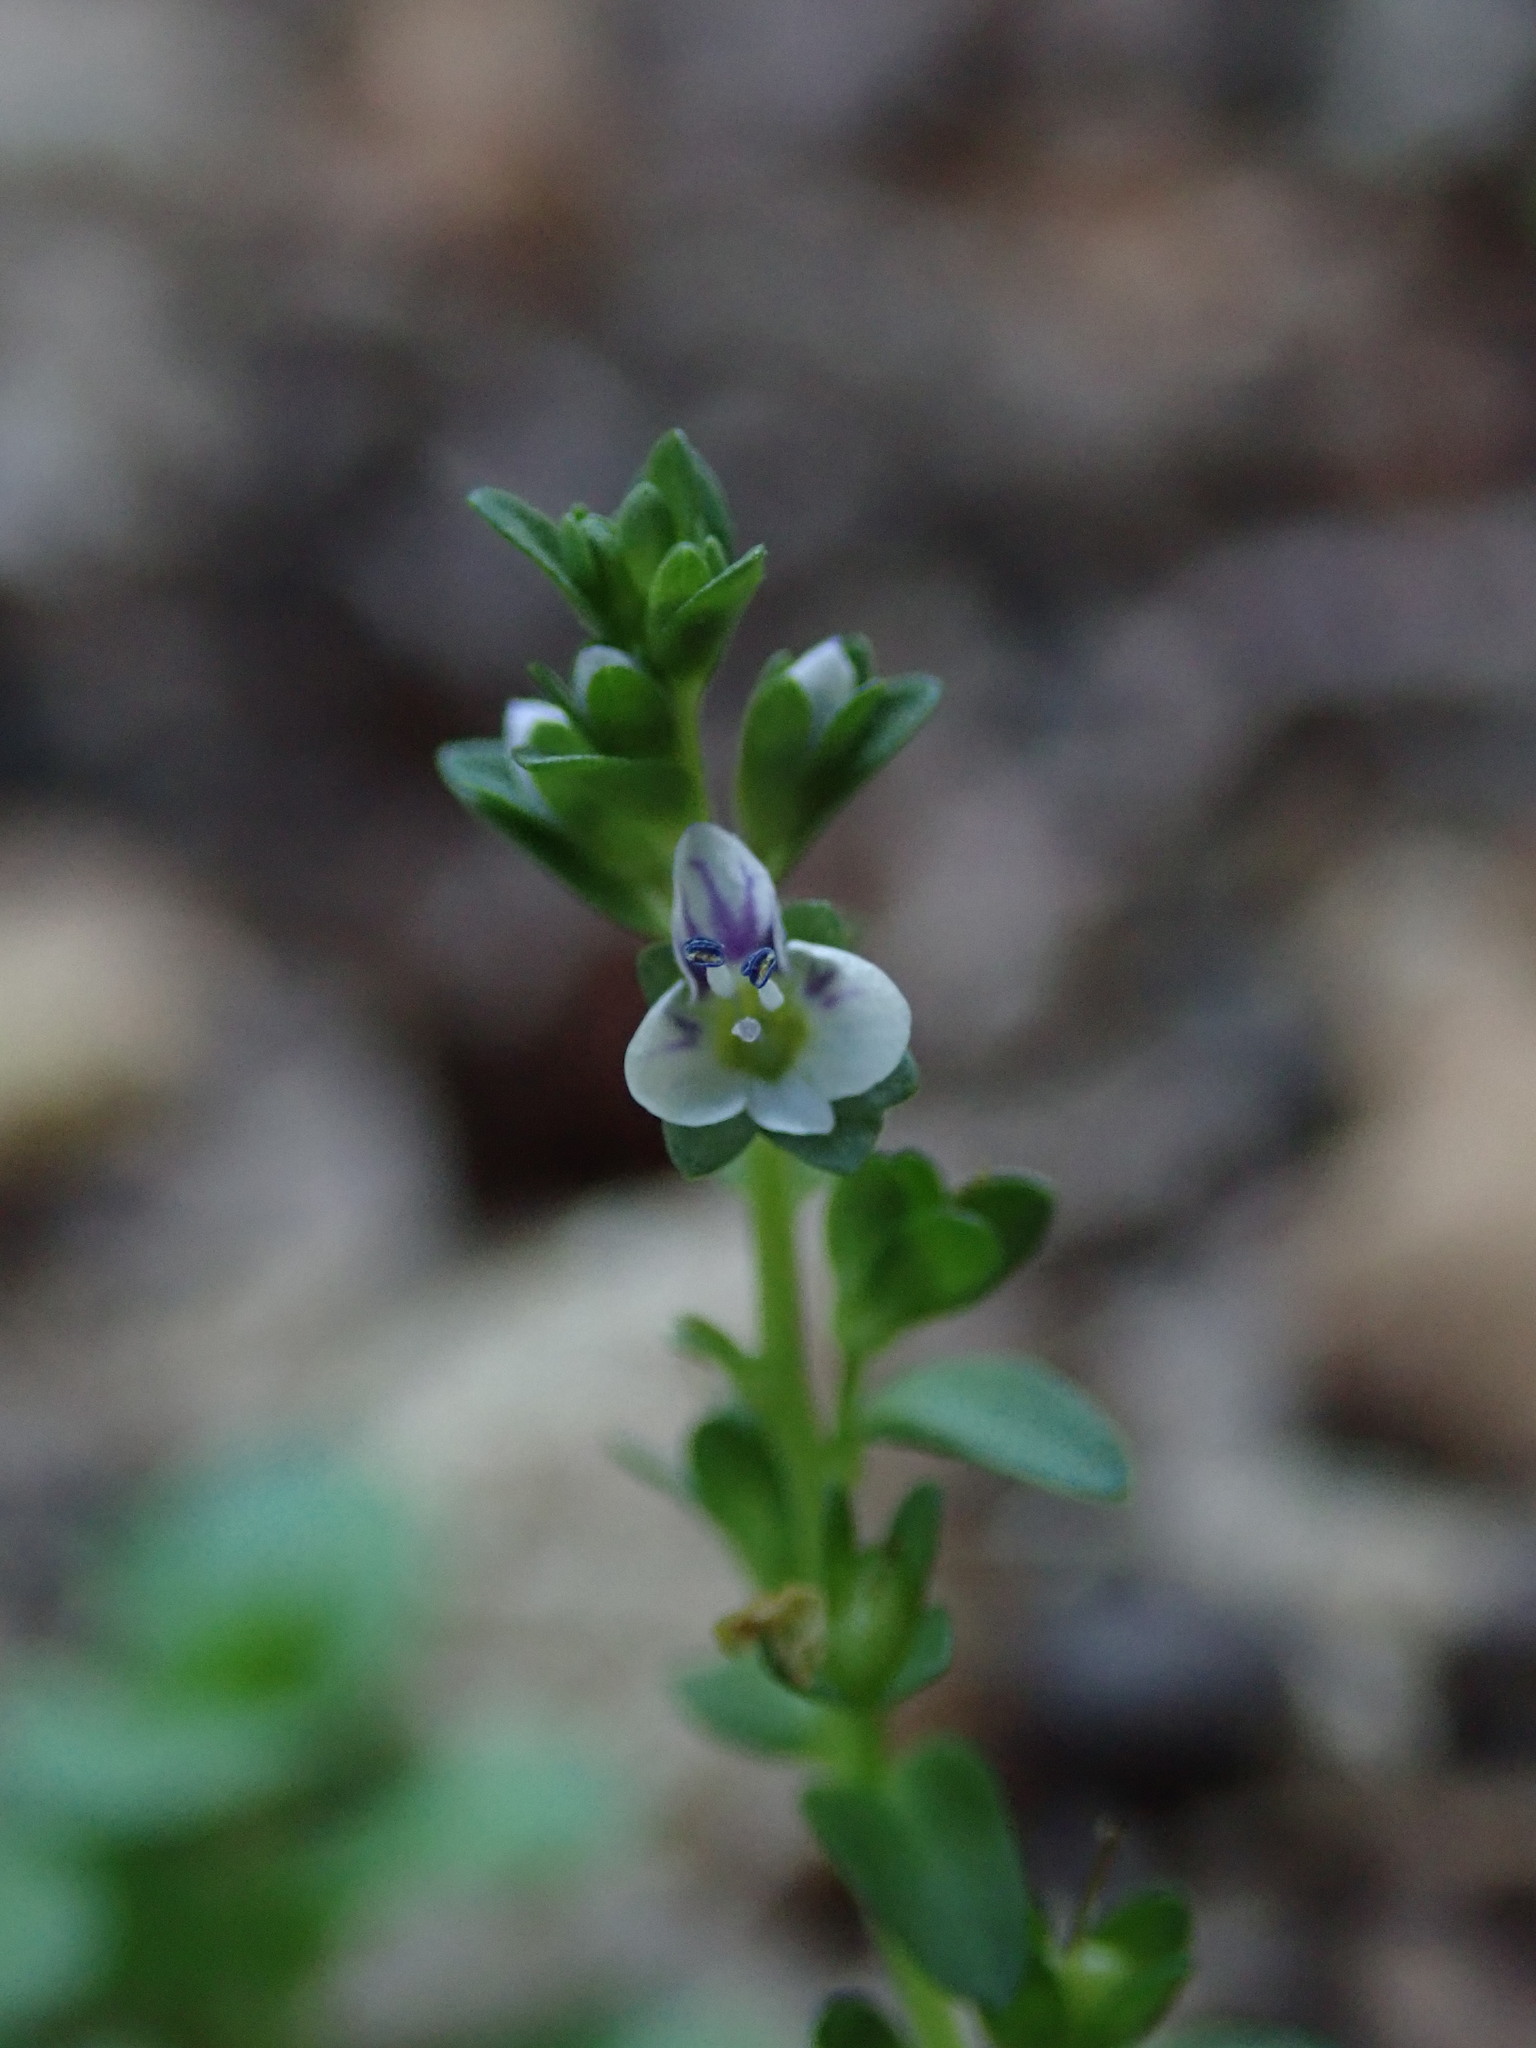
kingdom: Plantae
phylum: Tracheophyta
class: Magnoliopsida
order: Lamiales
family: Plantaginaceae
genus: Veronica
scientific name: Veronica serpyllifolia
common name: Thyme-leaved speedwell
